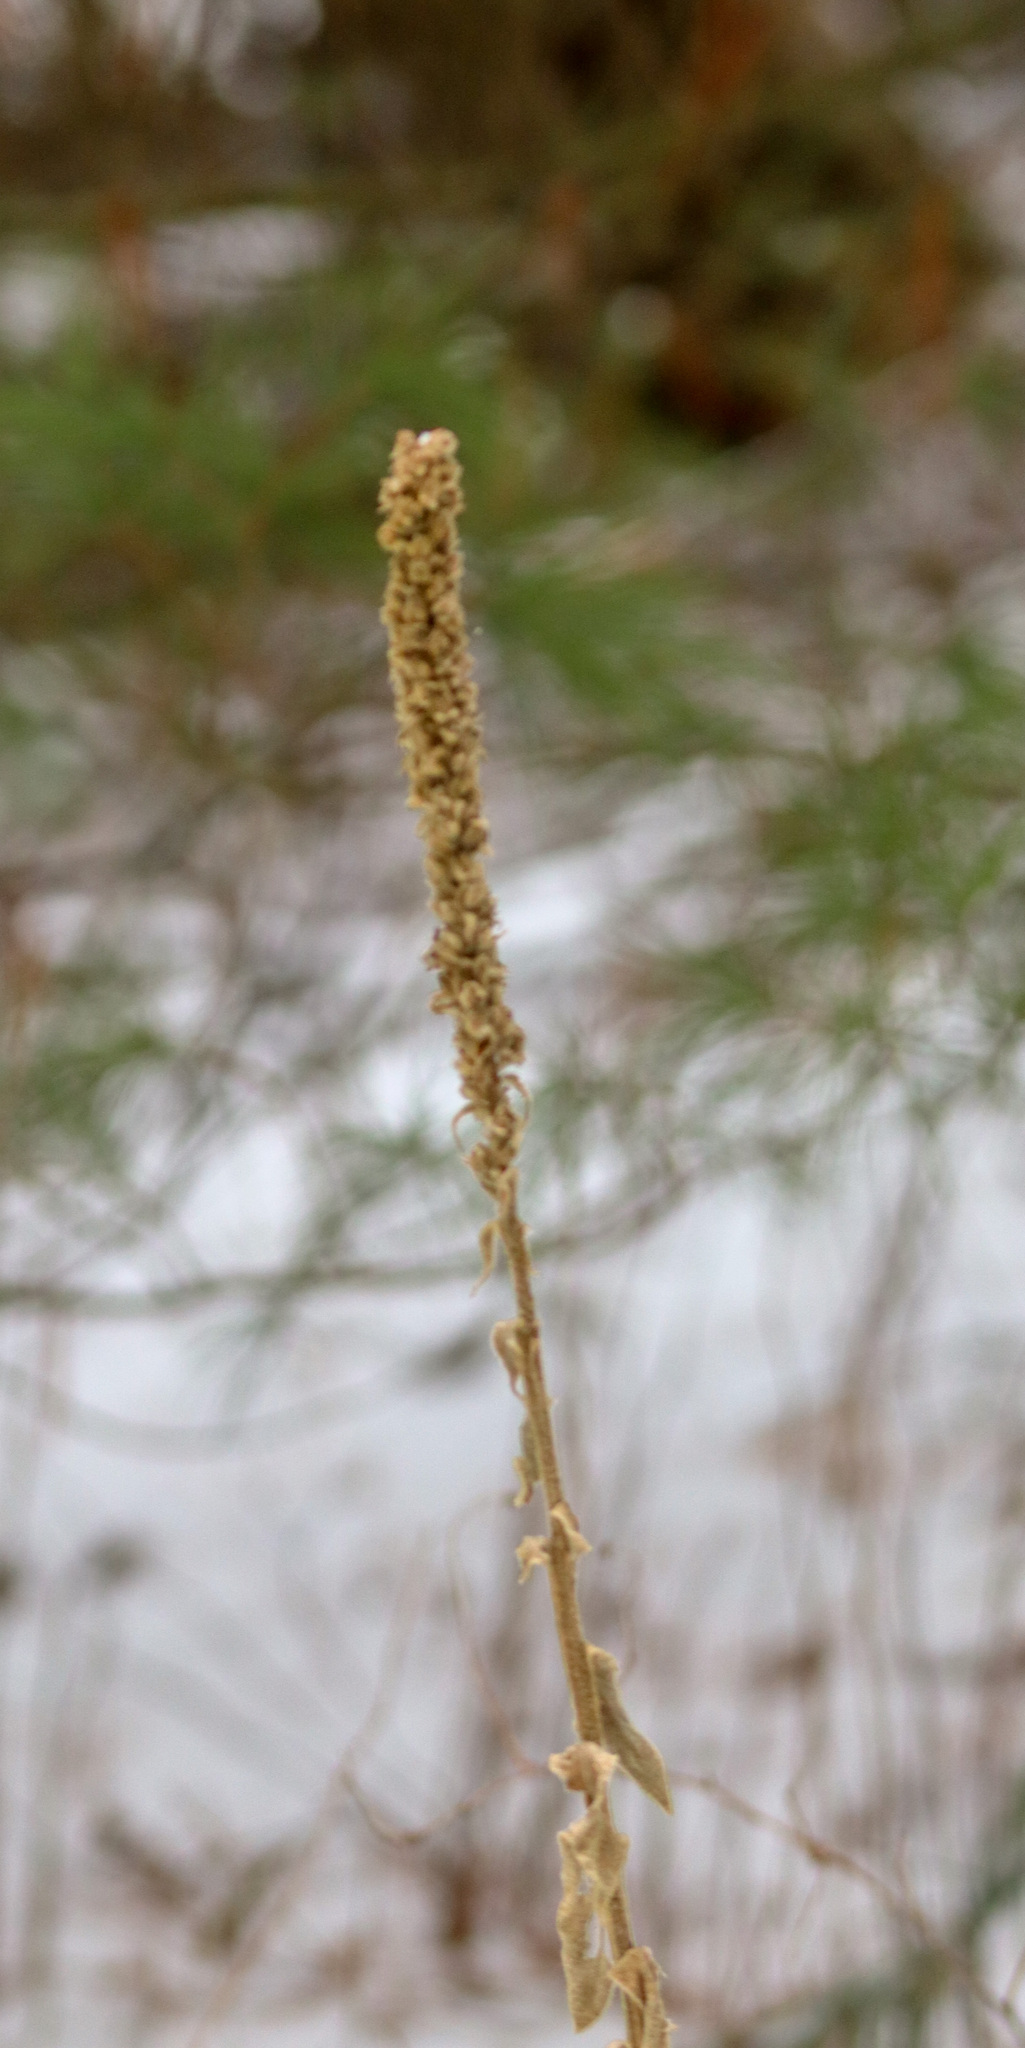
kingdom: Plantae
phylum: Tracheophyta
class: Magnoliopsida
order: Lamiales
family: Scrophulariaceae
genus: Verbascum
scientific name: Verbascum thapsus
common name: Common mullein
